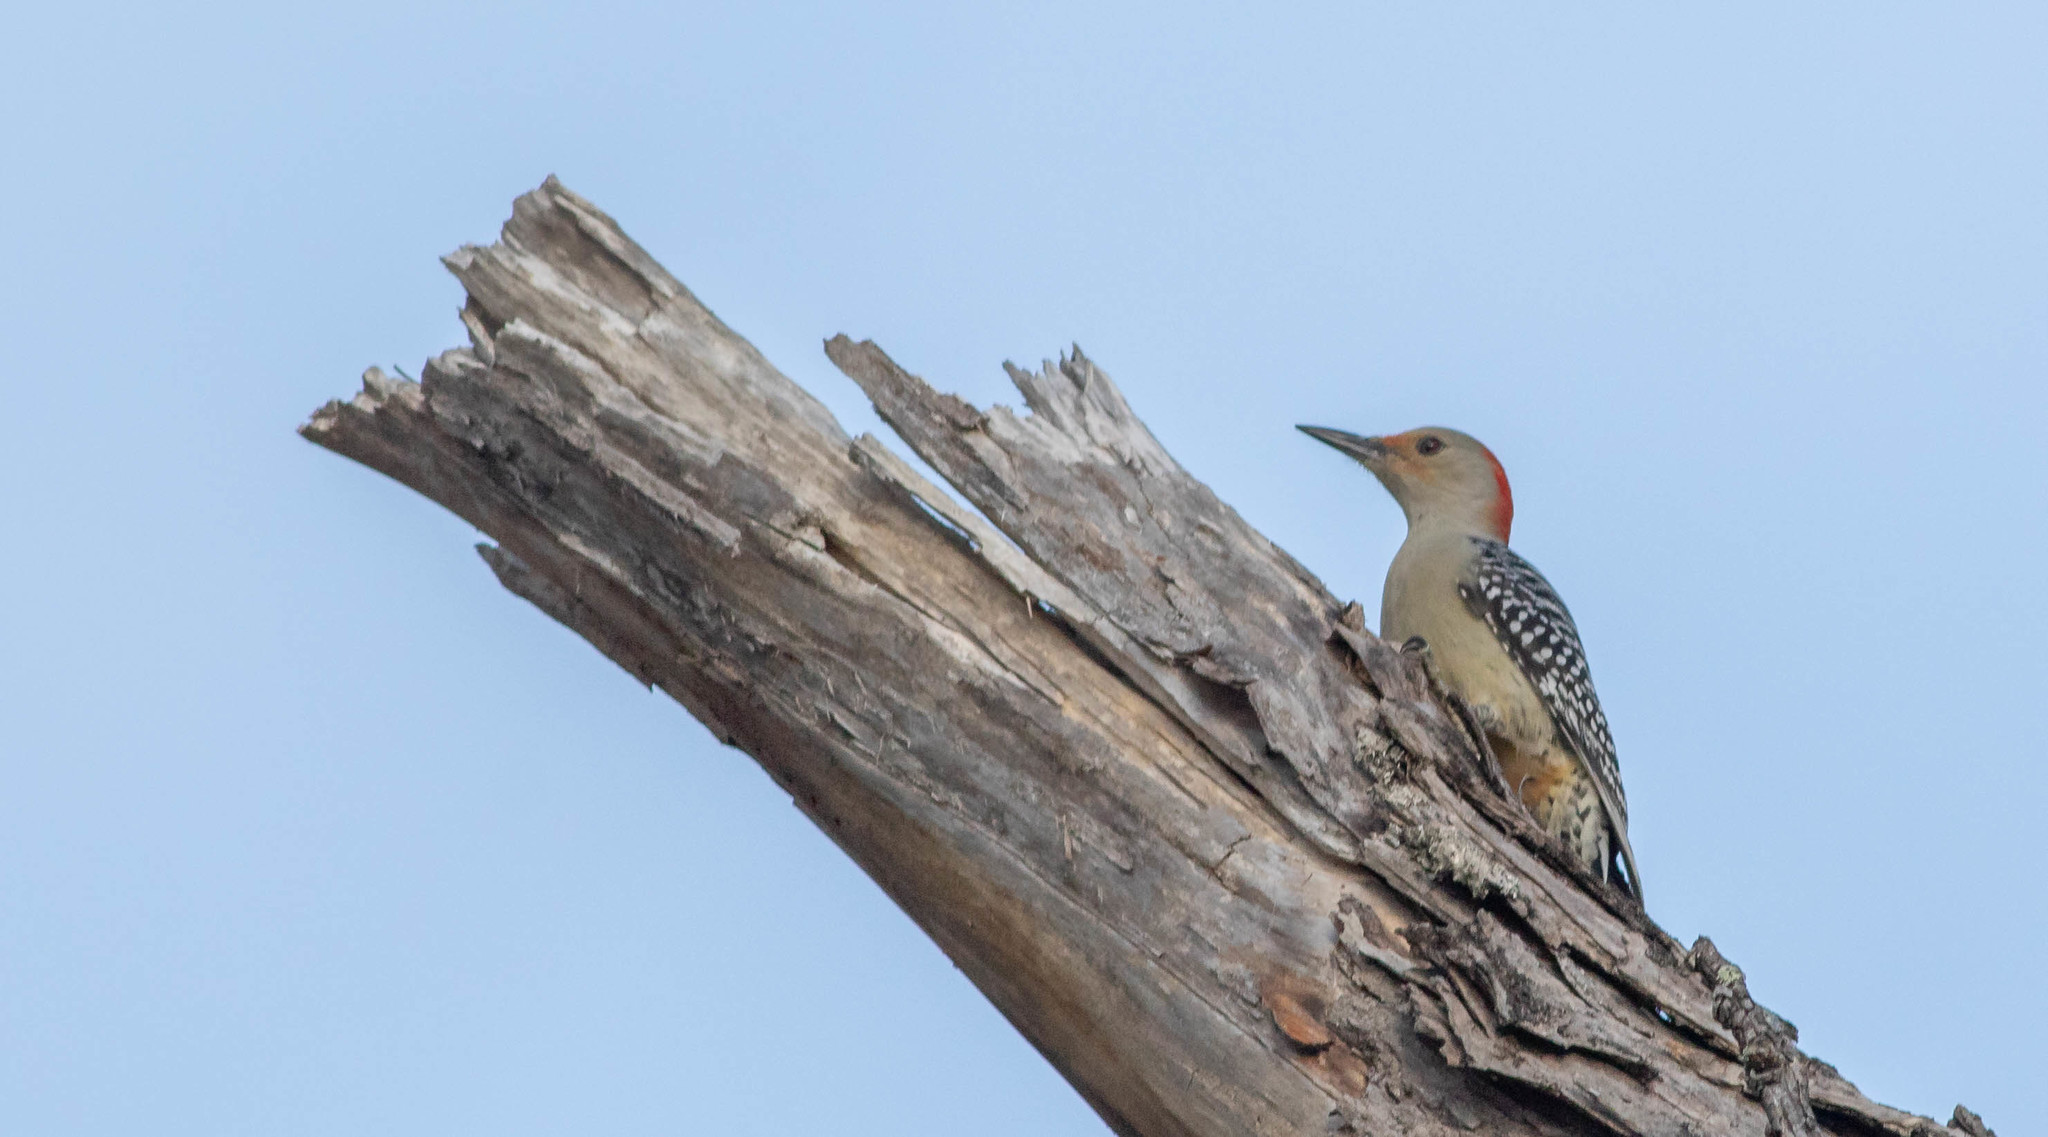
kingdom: Animalia
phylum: Chordata
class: Aves
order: Piciformes
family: Picidae
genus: Melanerpes
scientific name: Melanerpes carolinus
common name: Red-bellied woodpecker
